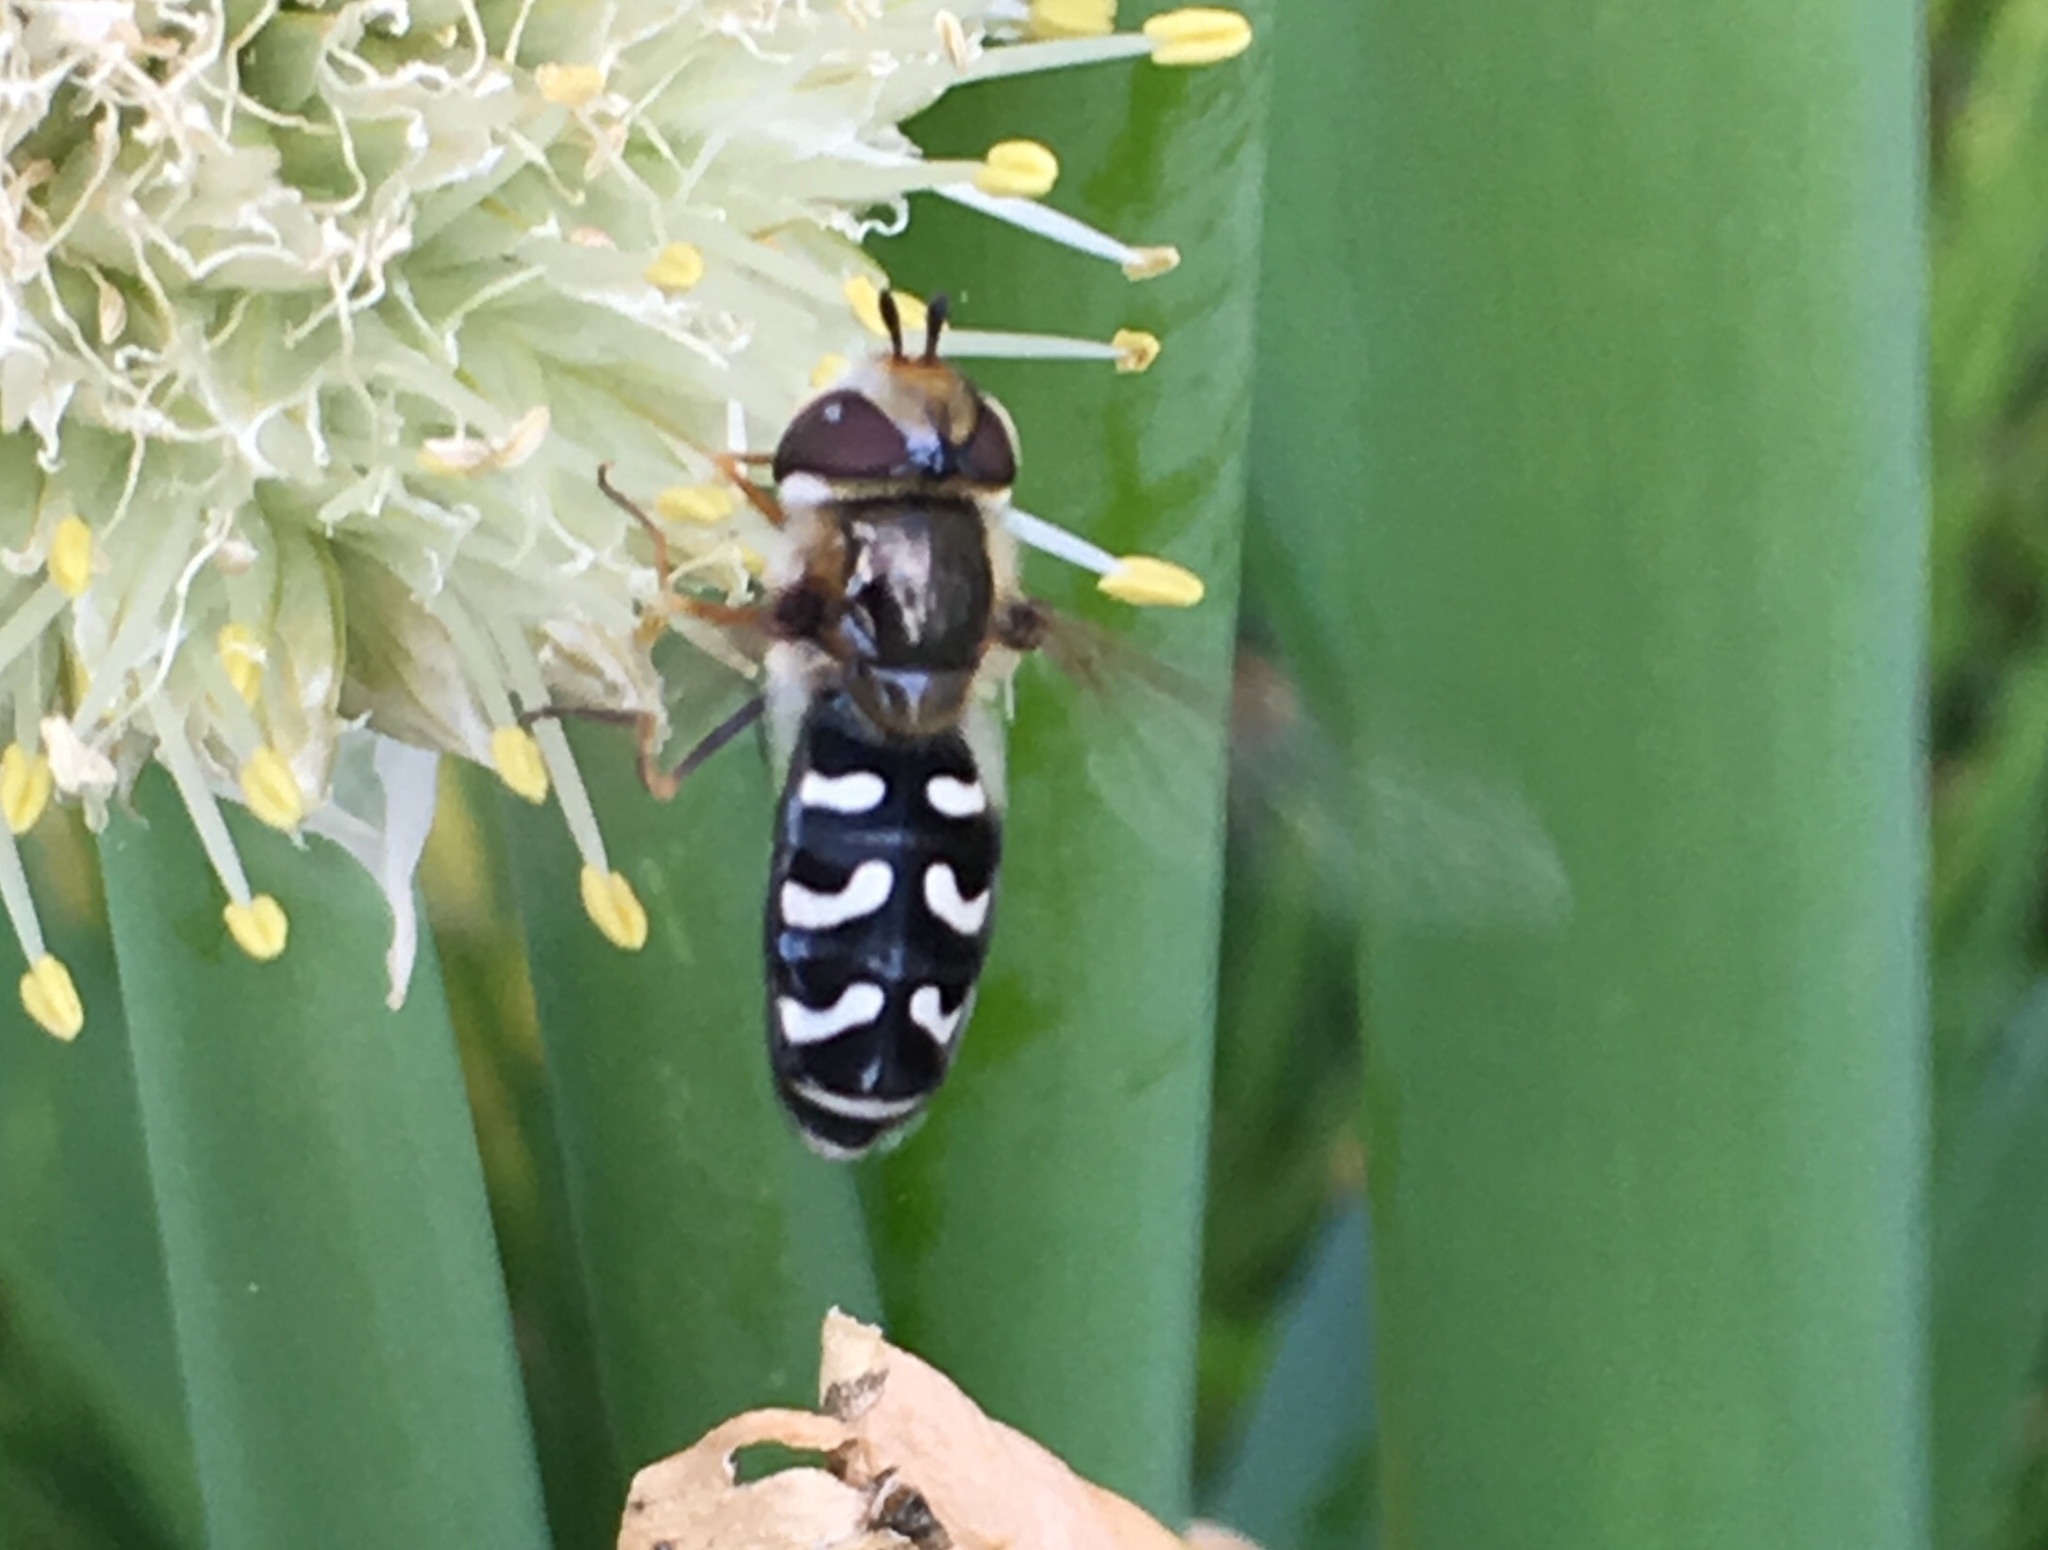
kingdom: Animalia
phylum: Arthropoda
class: Insecta
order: Diptera
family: Syrphidae
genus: Scaeva
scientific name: Scaeva pyrastri
